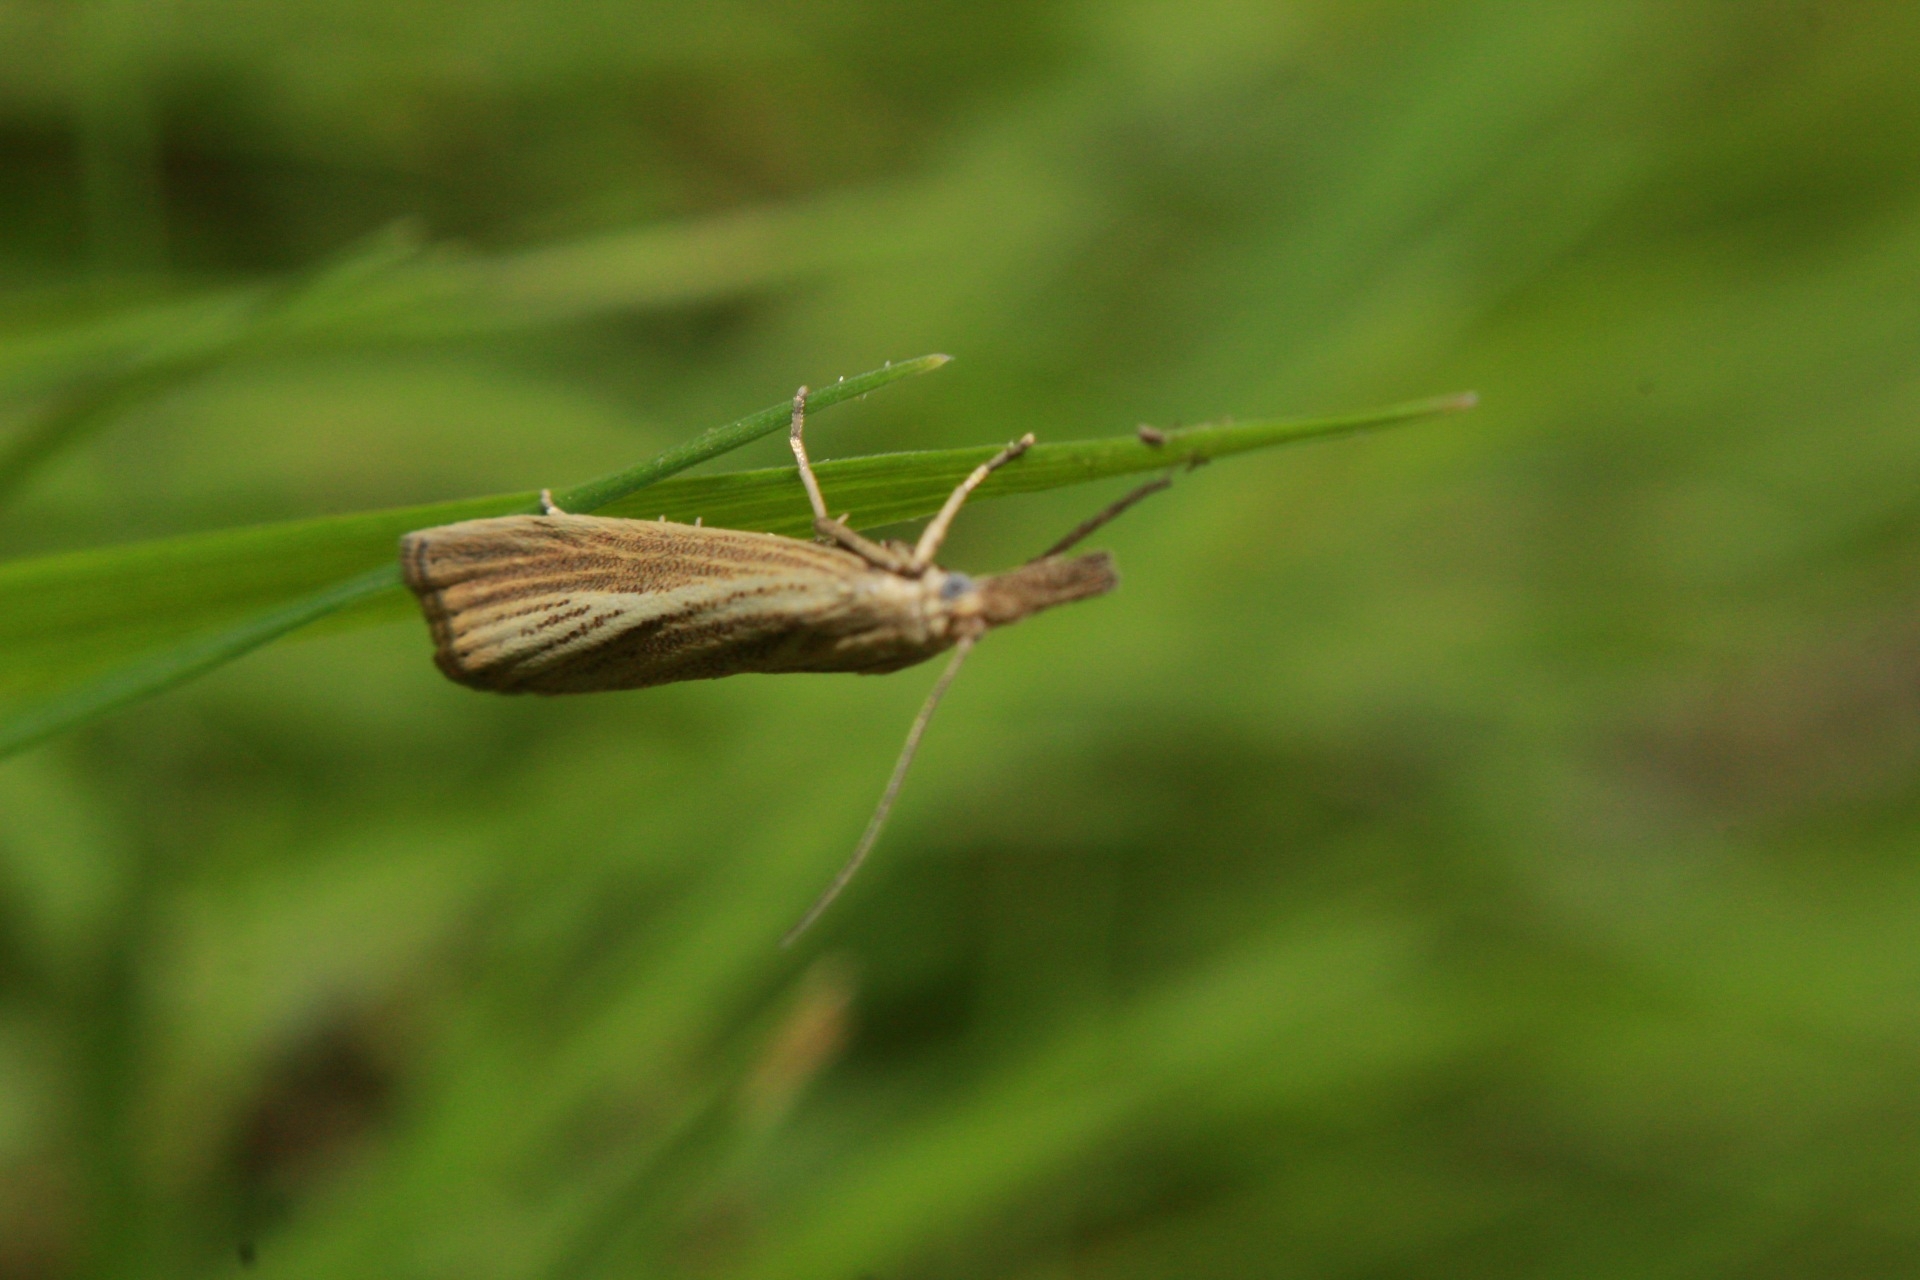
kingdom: Animalia
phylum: Arthropoda
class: Insecta
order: Lepidoptera
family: Crambidae
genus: Agriphila
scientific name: Agriphila straminella
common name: Straw grass-veneer
